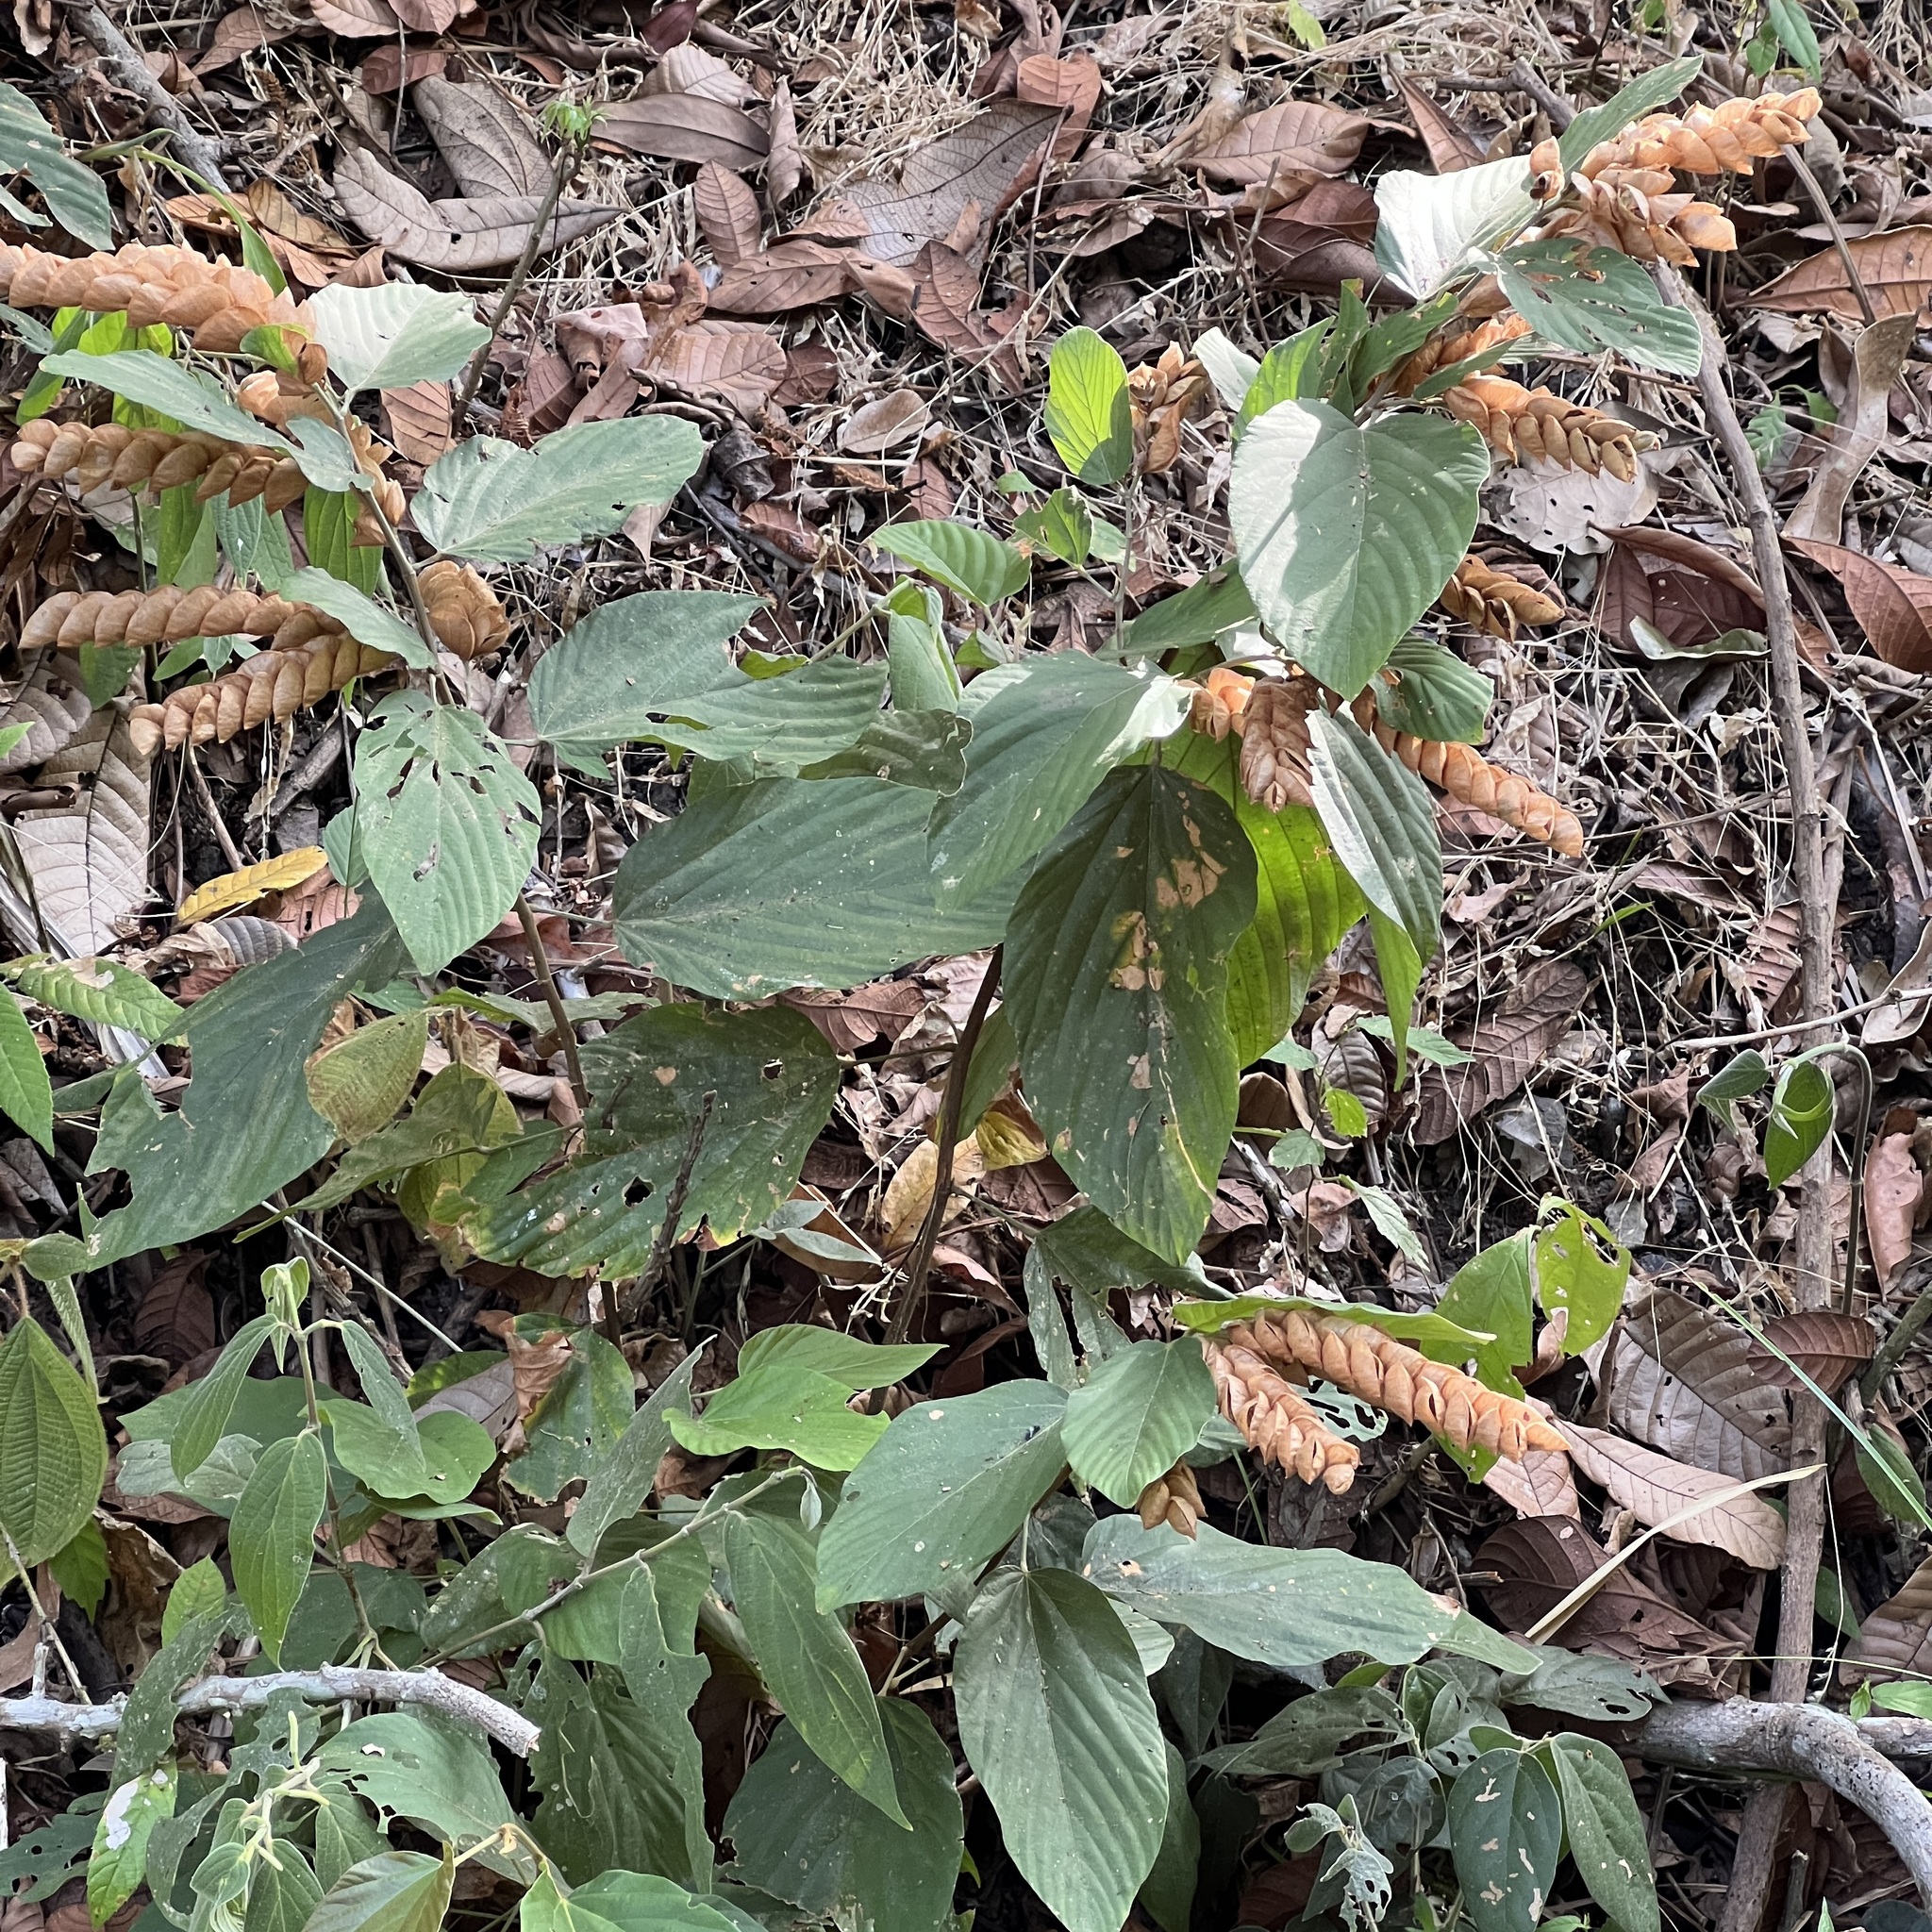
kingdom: Plantae
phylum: Tracheophyta
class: Magnoliopsida
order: Fabales
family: Fabaceae
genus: Flemingia
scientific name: Flemingia strobilifera
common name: Wild hops
